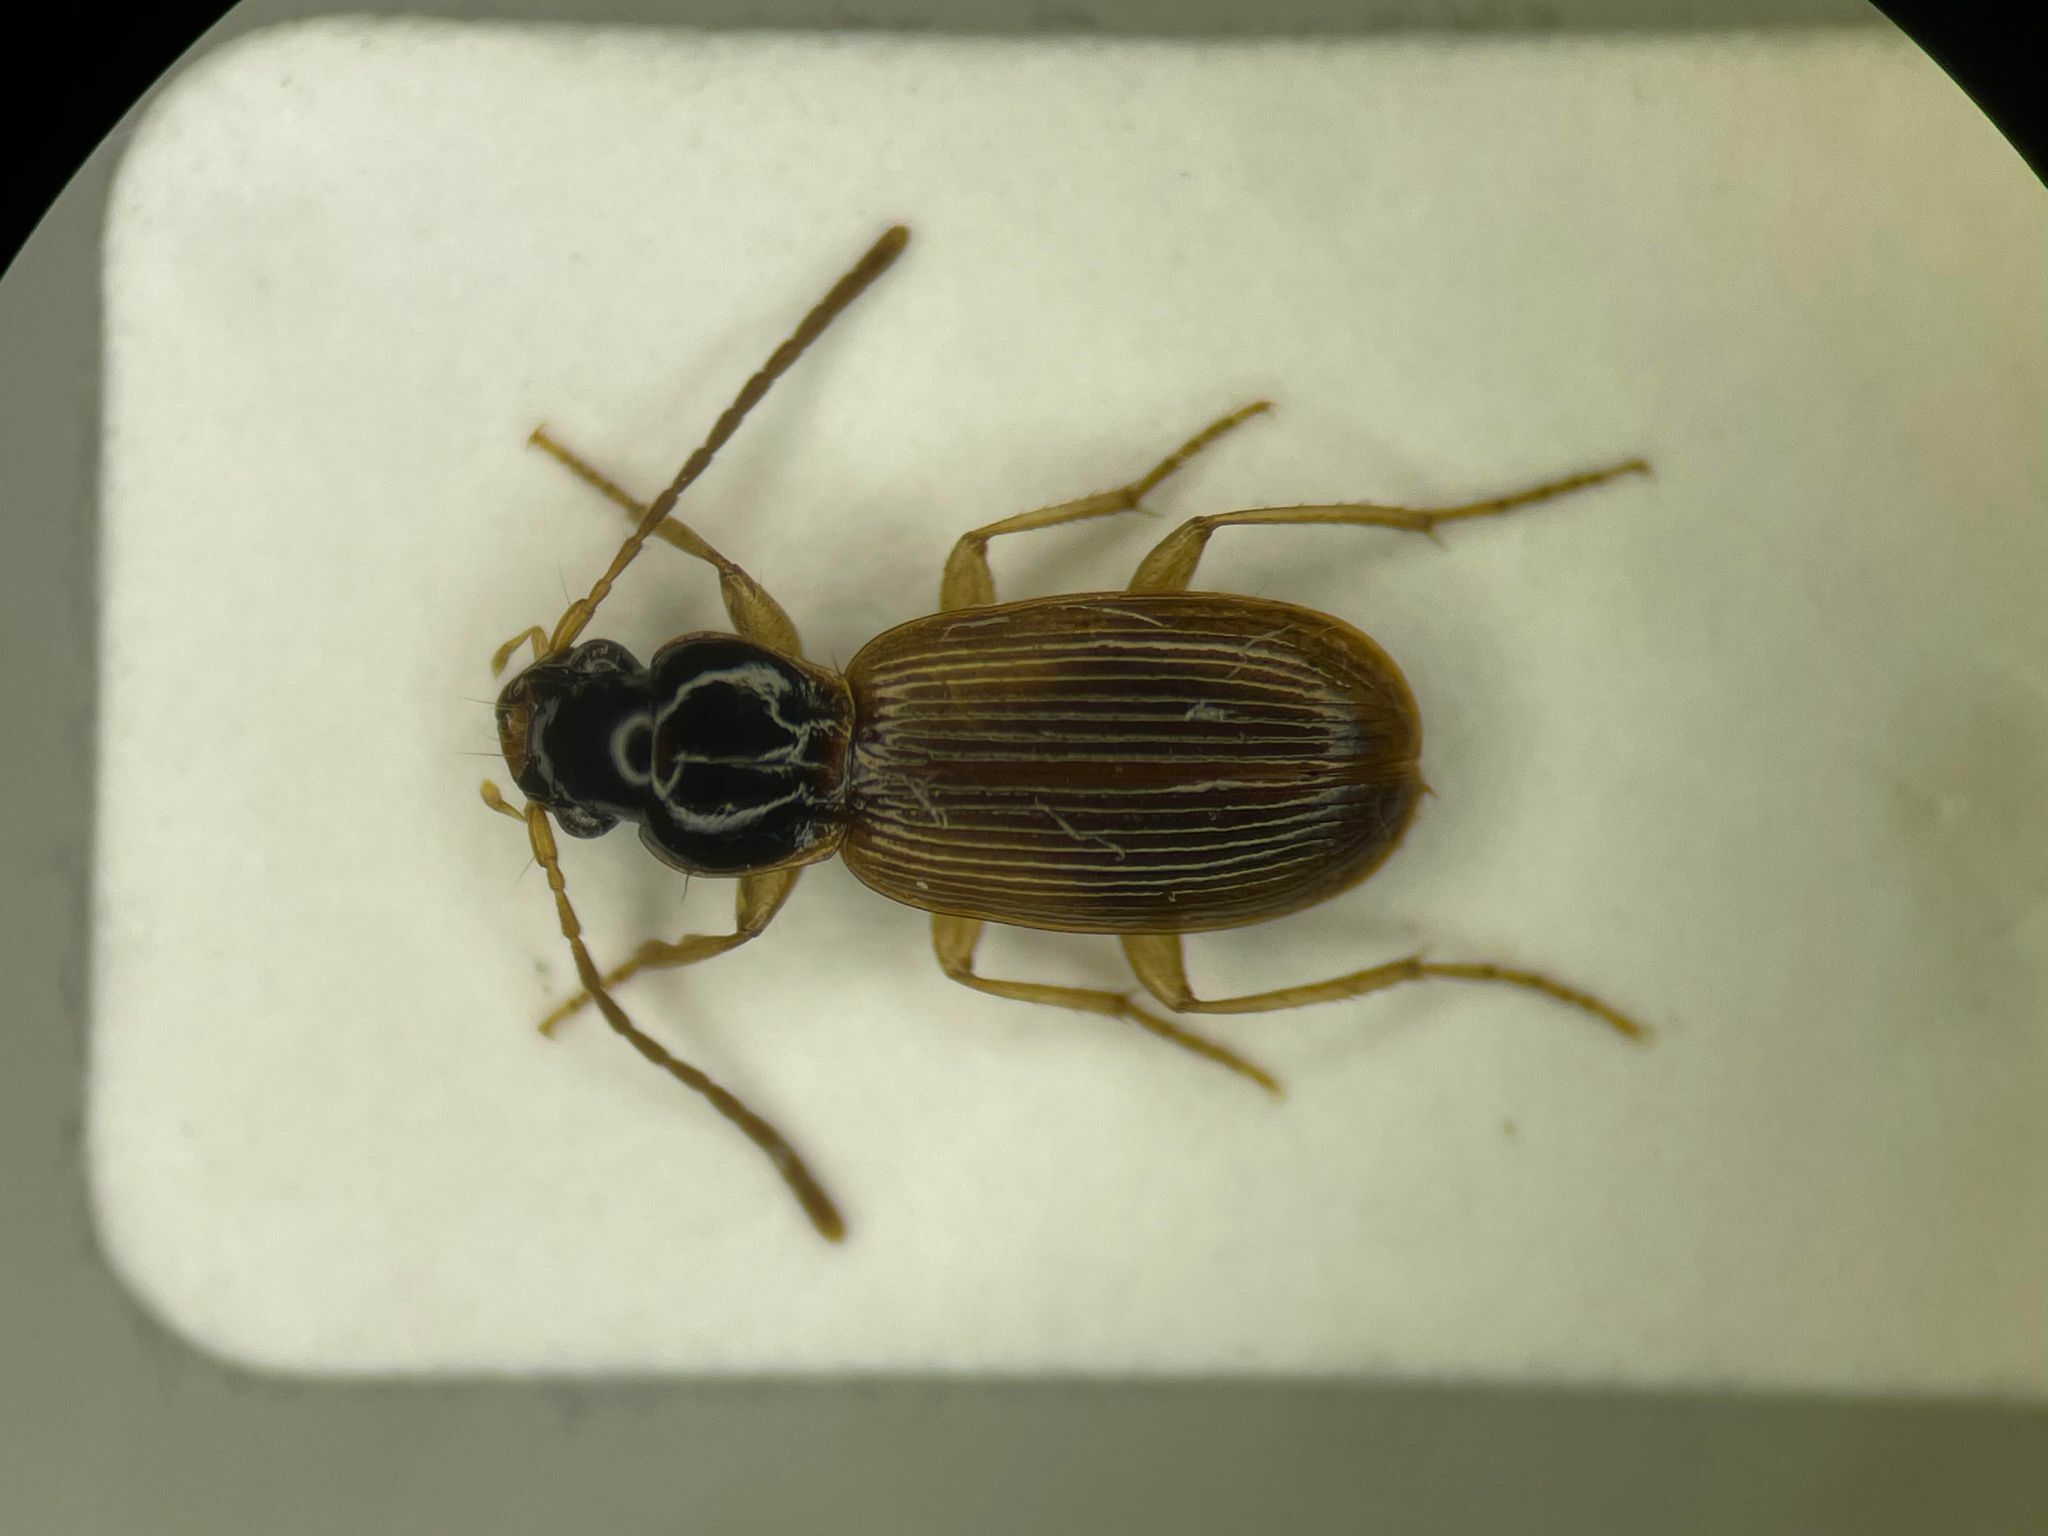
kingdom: Animalia
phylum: Arthropoda
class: Insecta
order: Coleoptera
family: Carabidae
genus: Badister
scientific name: Badister notatus
